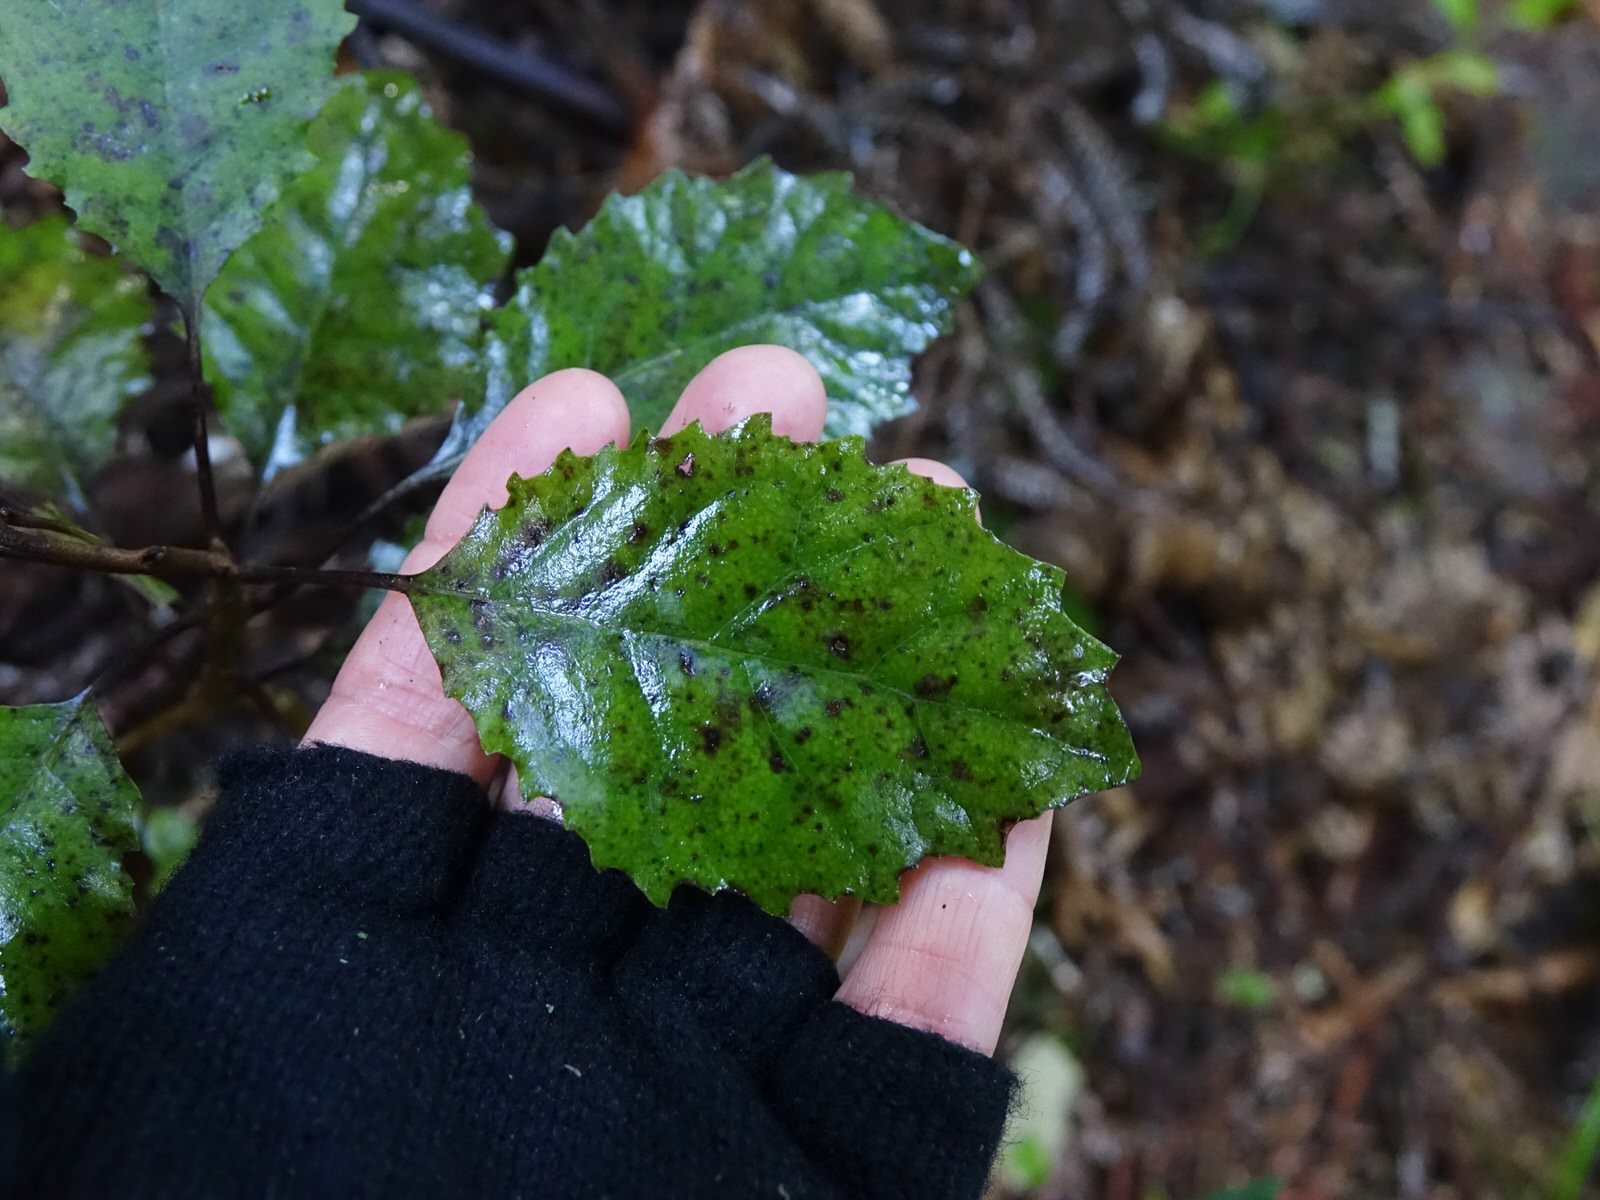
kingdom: Plantae
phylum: Tracheophyta
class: Magnoliopsida
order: Asterales
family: Asteraceae
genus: Olearia
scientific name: Olearia rani
